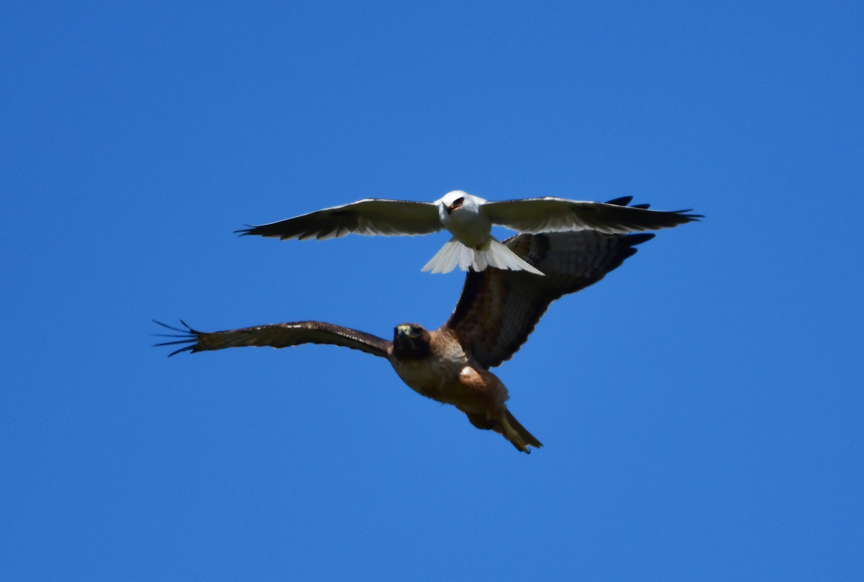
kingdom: Animalia
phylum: Chordata
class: Aves
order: Accipitriformes
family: Accipitridae
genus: Elanus
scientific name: Elanus leucurus
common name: White-tailed kite
